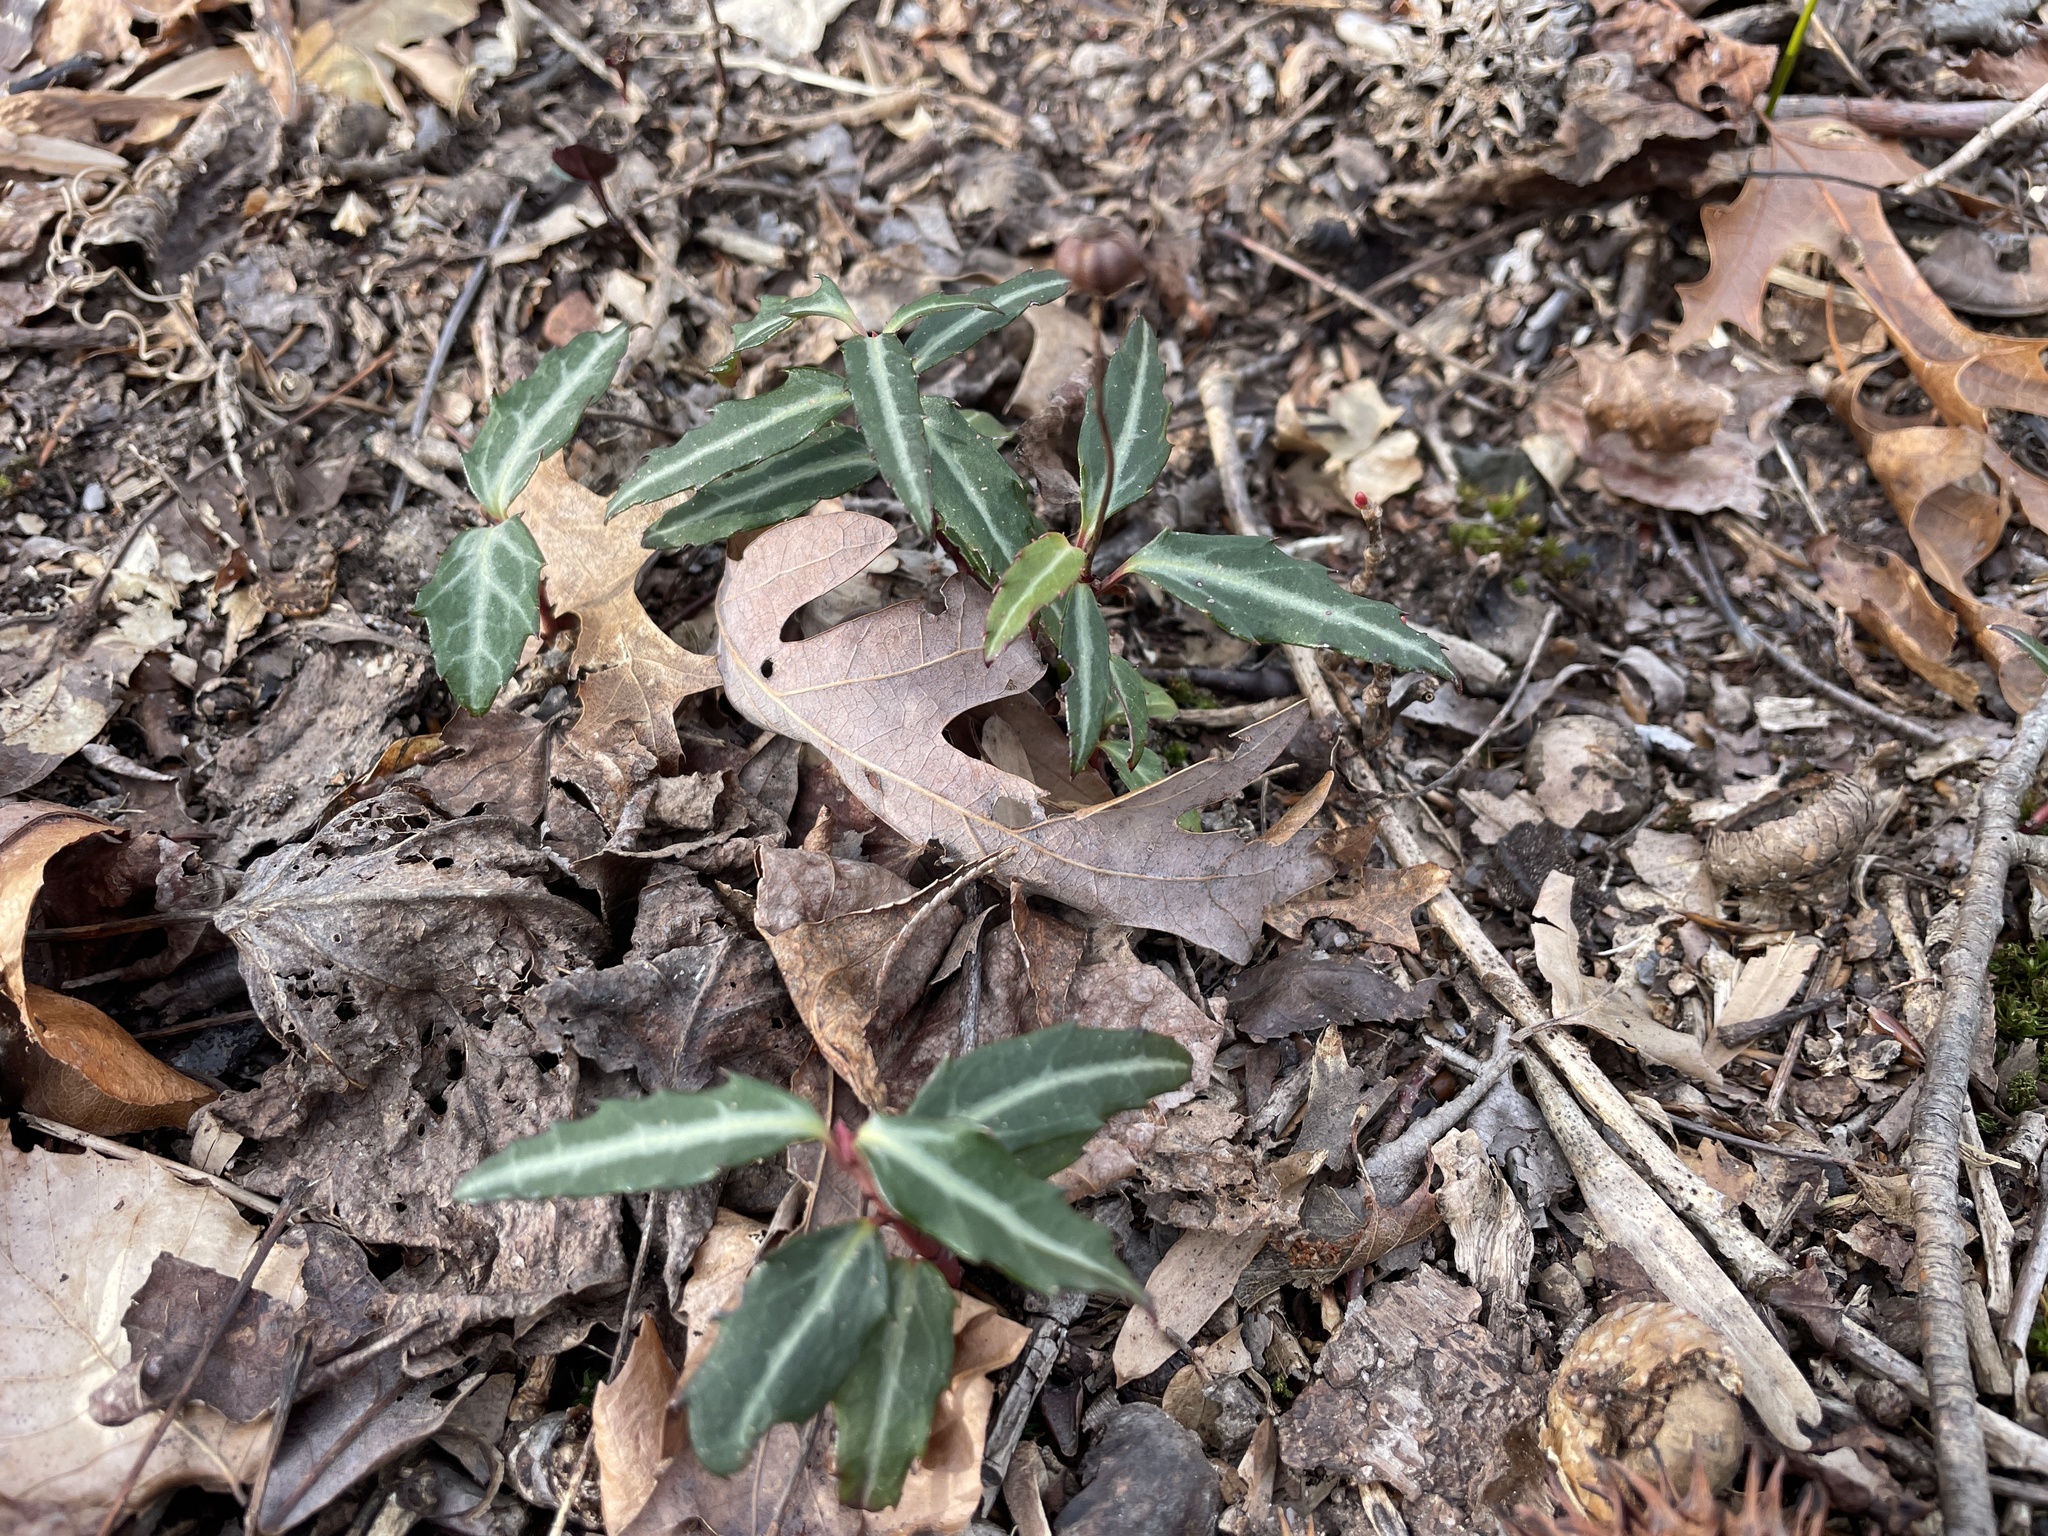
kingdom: Plantae
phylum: Tracheophyta
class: Magnoliopsida
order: Ericales
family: Ericaceae
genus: Chimaphila
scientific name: Chimaphila maculata
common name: Spotted pipsissewa
